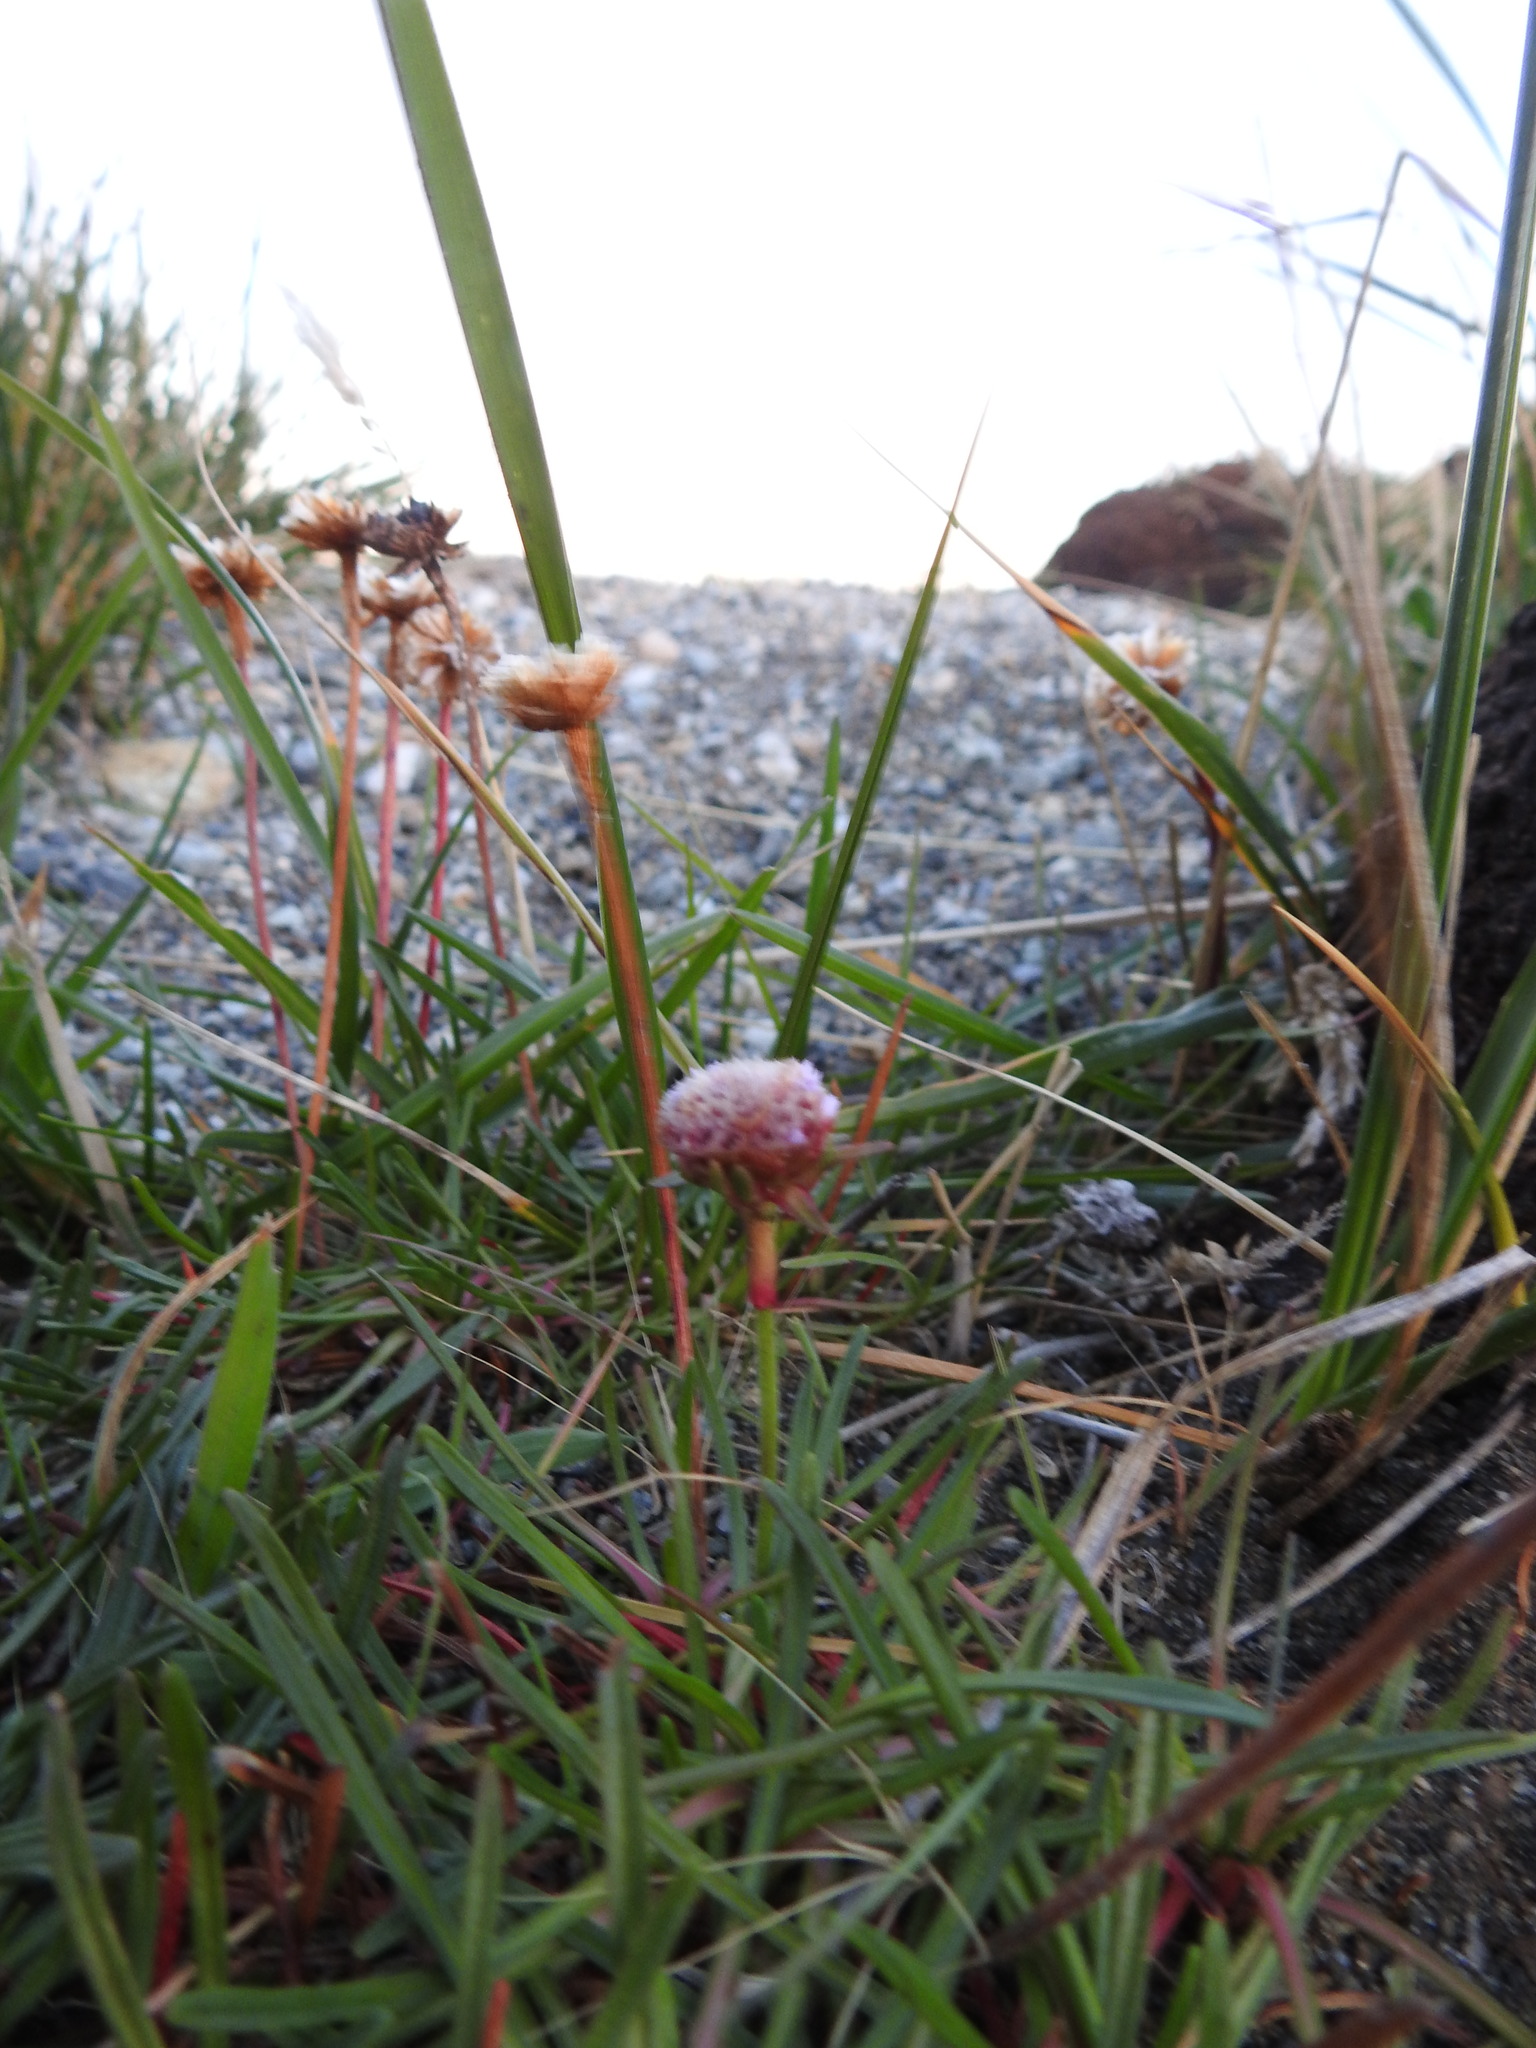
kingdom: Plantae
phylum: Tracheophyta
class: Magnoliopsida
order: Caryophyllales
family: Plumbaginaceae
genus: Armeria
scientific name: Armeria curvifolia
